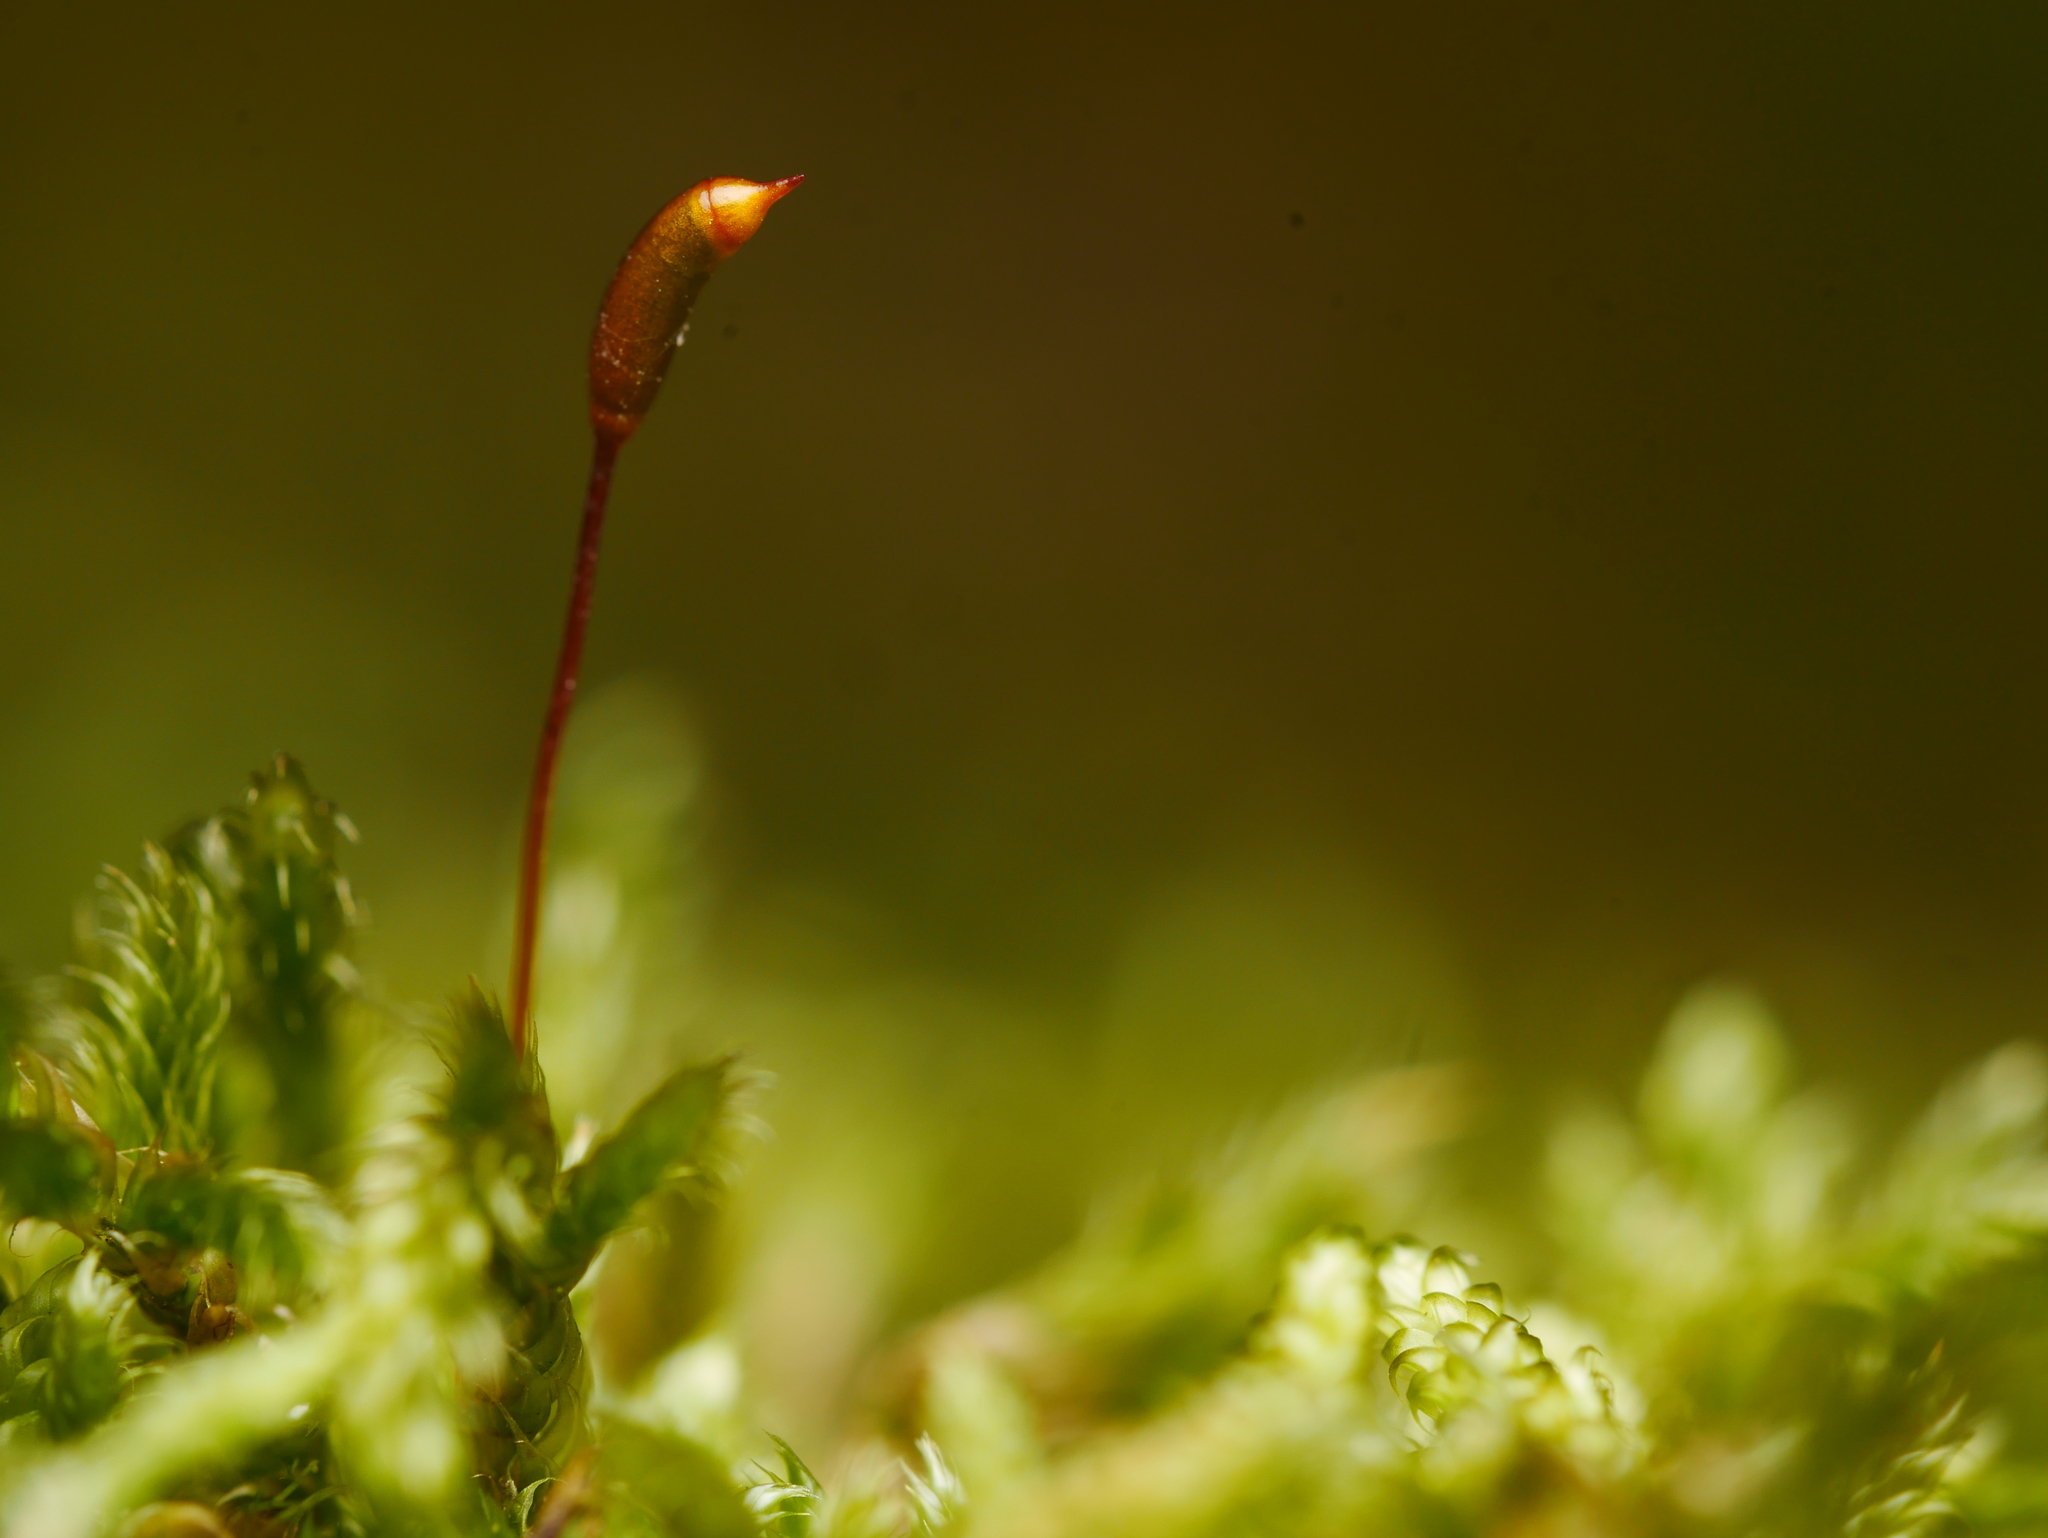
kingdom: Plantae
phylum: Bryophyta
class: Bryopsida
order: Hypnales
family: Hypnaceae
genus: Hypnum
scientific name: Hypnum cupressiforme
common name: Cypress-leaved plait-moss
